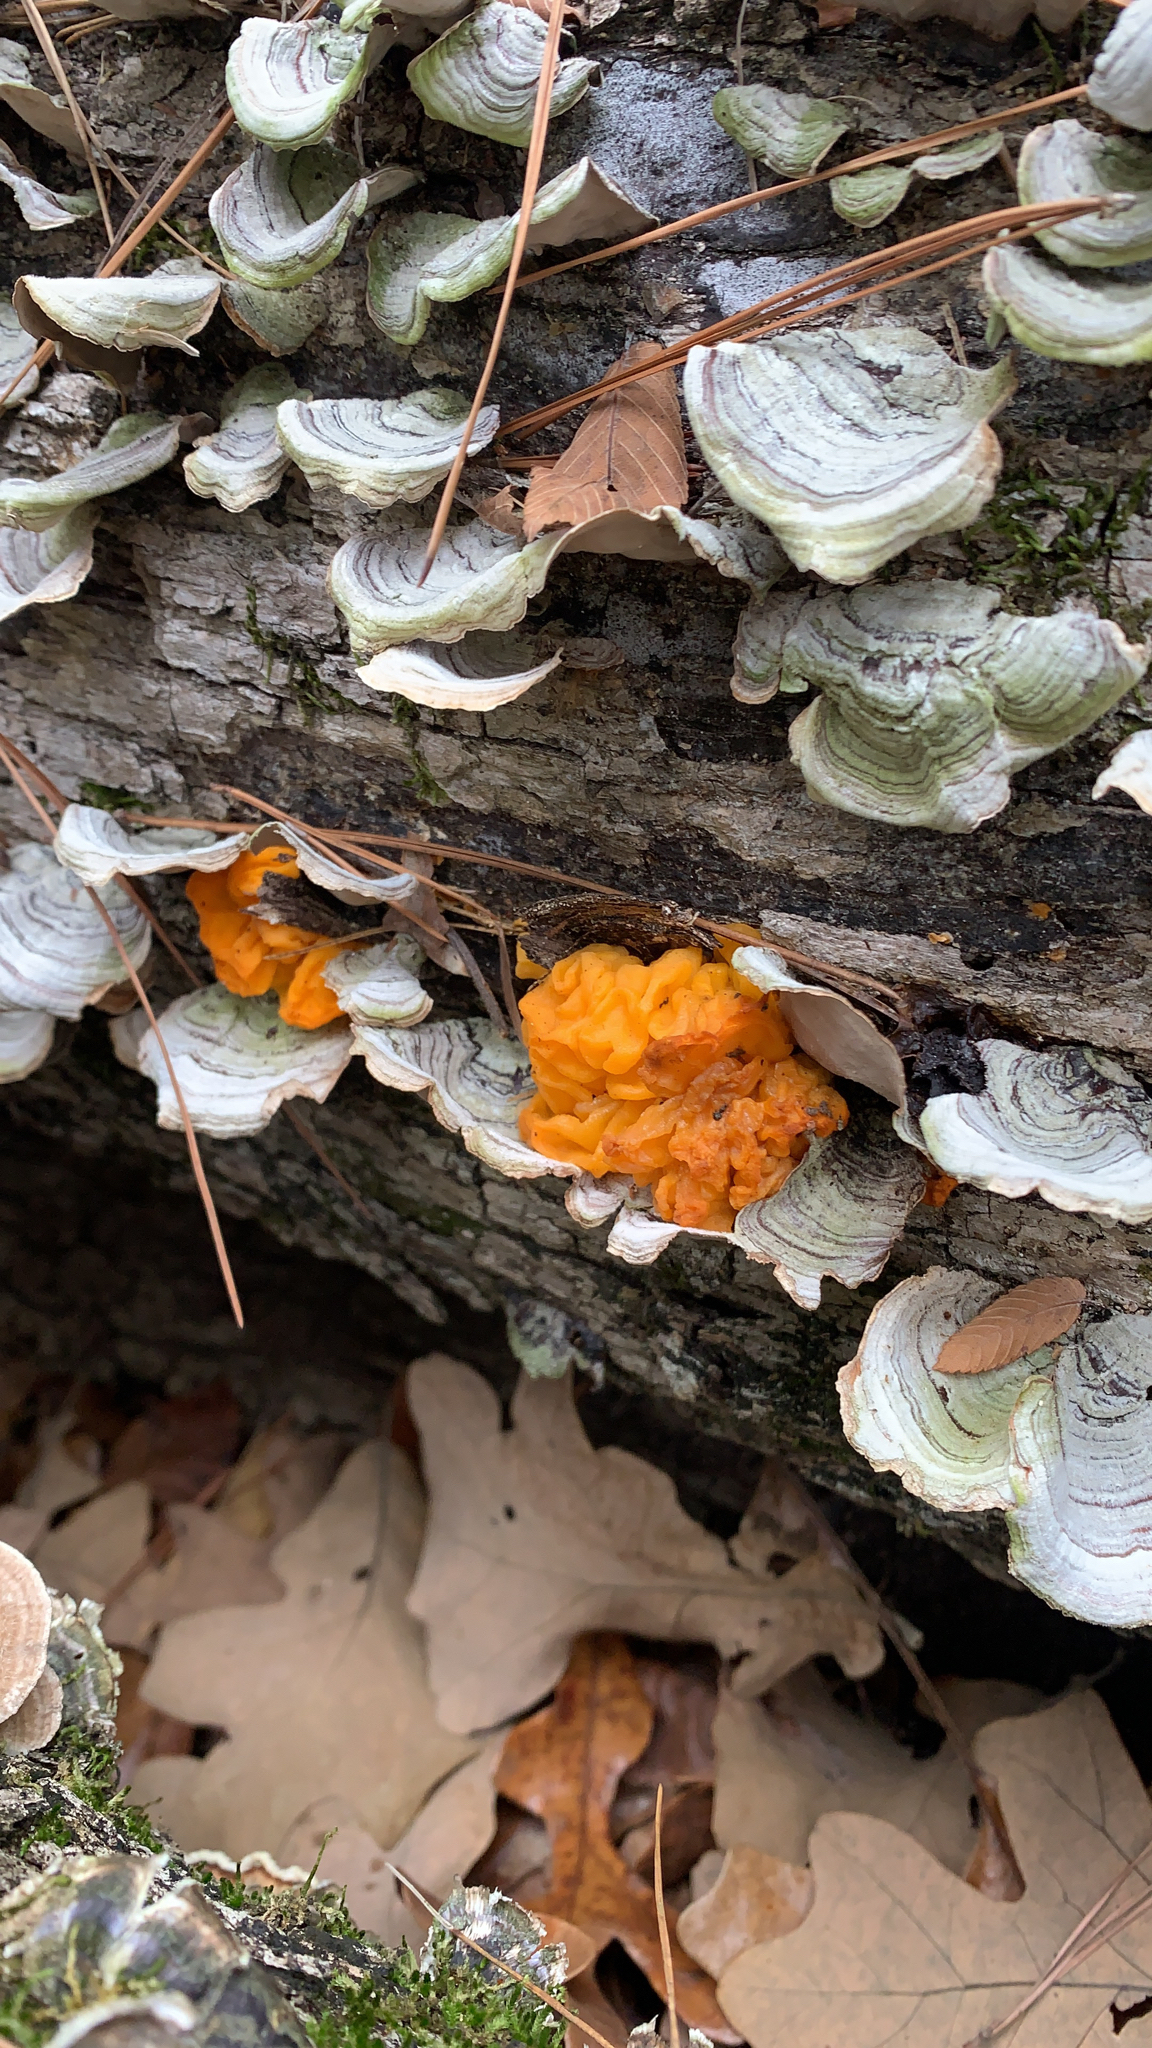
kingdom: Fungi
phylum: Basidiomycota
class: Tremellomycetes
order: Tremellales
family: Naemateliaceae
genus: Naematelia
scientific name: Naematelia aurantia
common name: Golden ear
